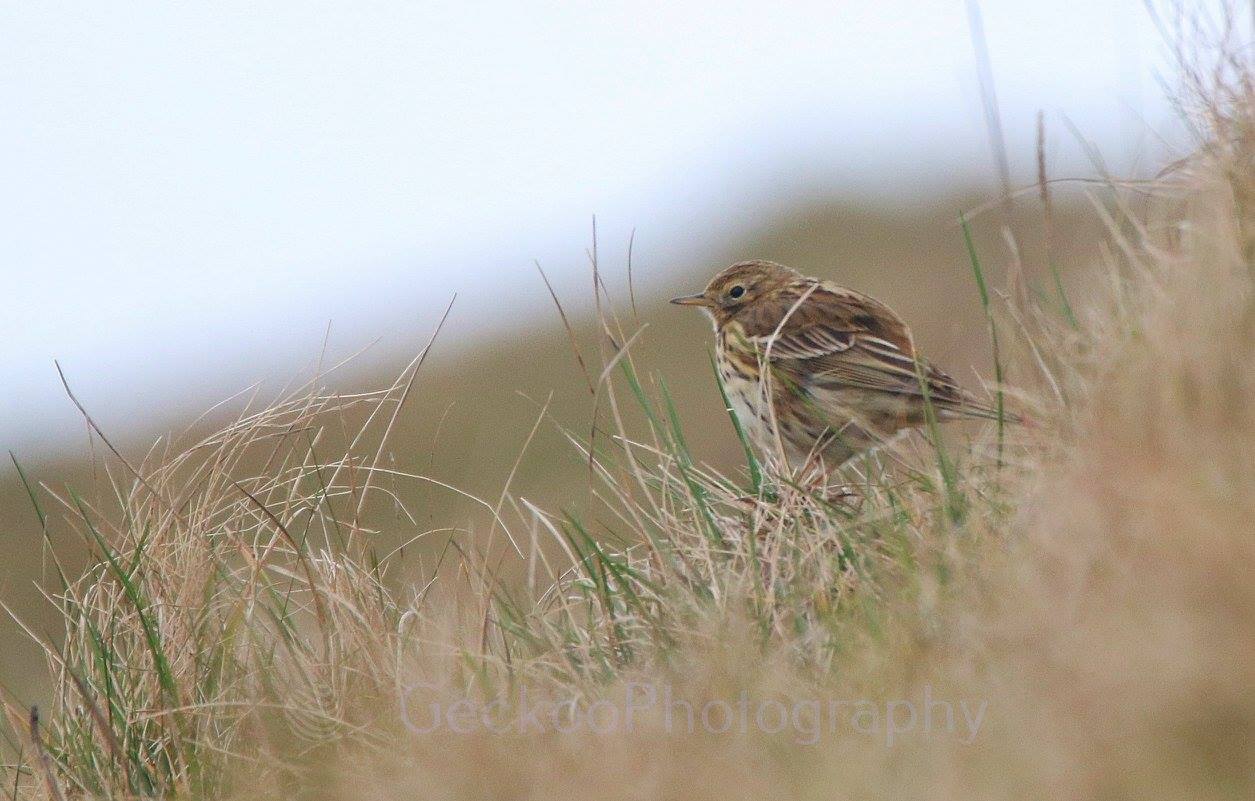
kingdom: Animalia
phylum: Chordata
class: Aves
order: Passeriformes
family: Motacillidae
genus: Anthus
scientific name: Anthus pratensis
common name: Meadow pipit
